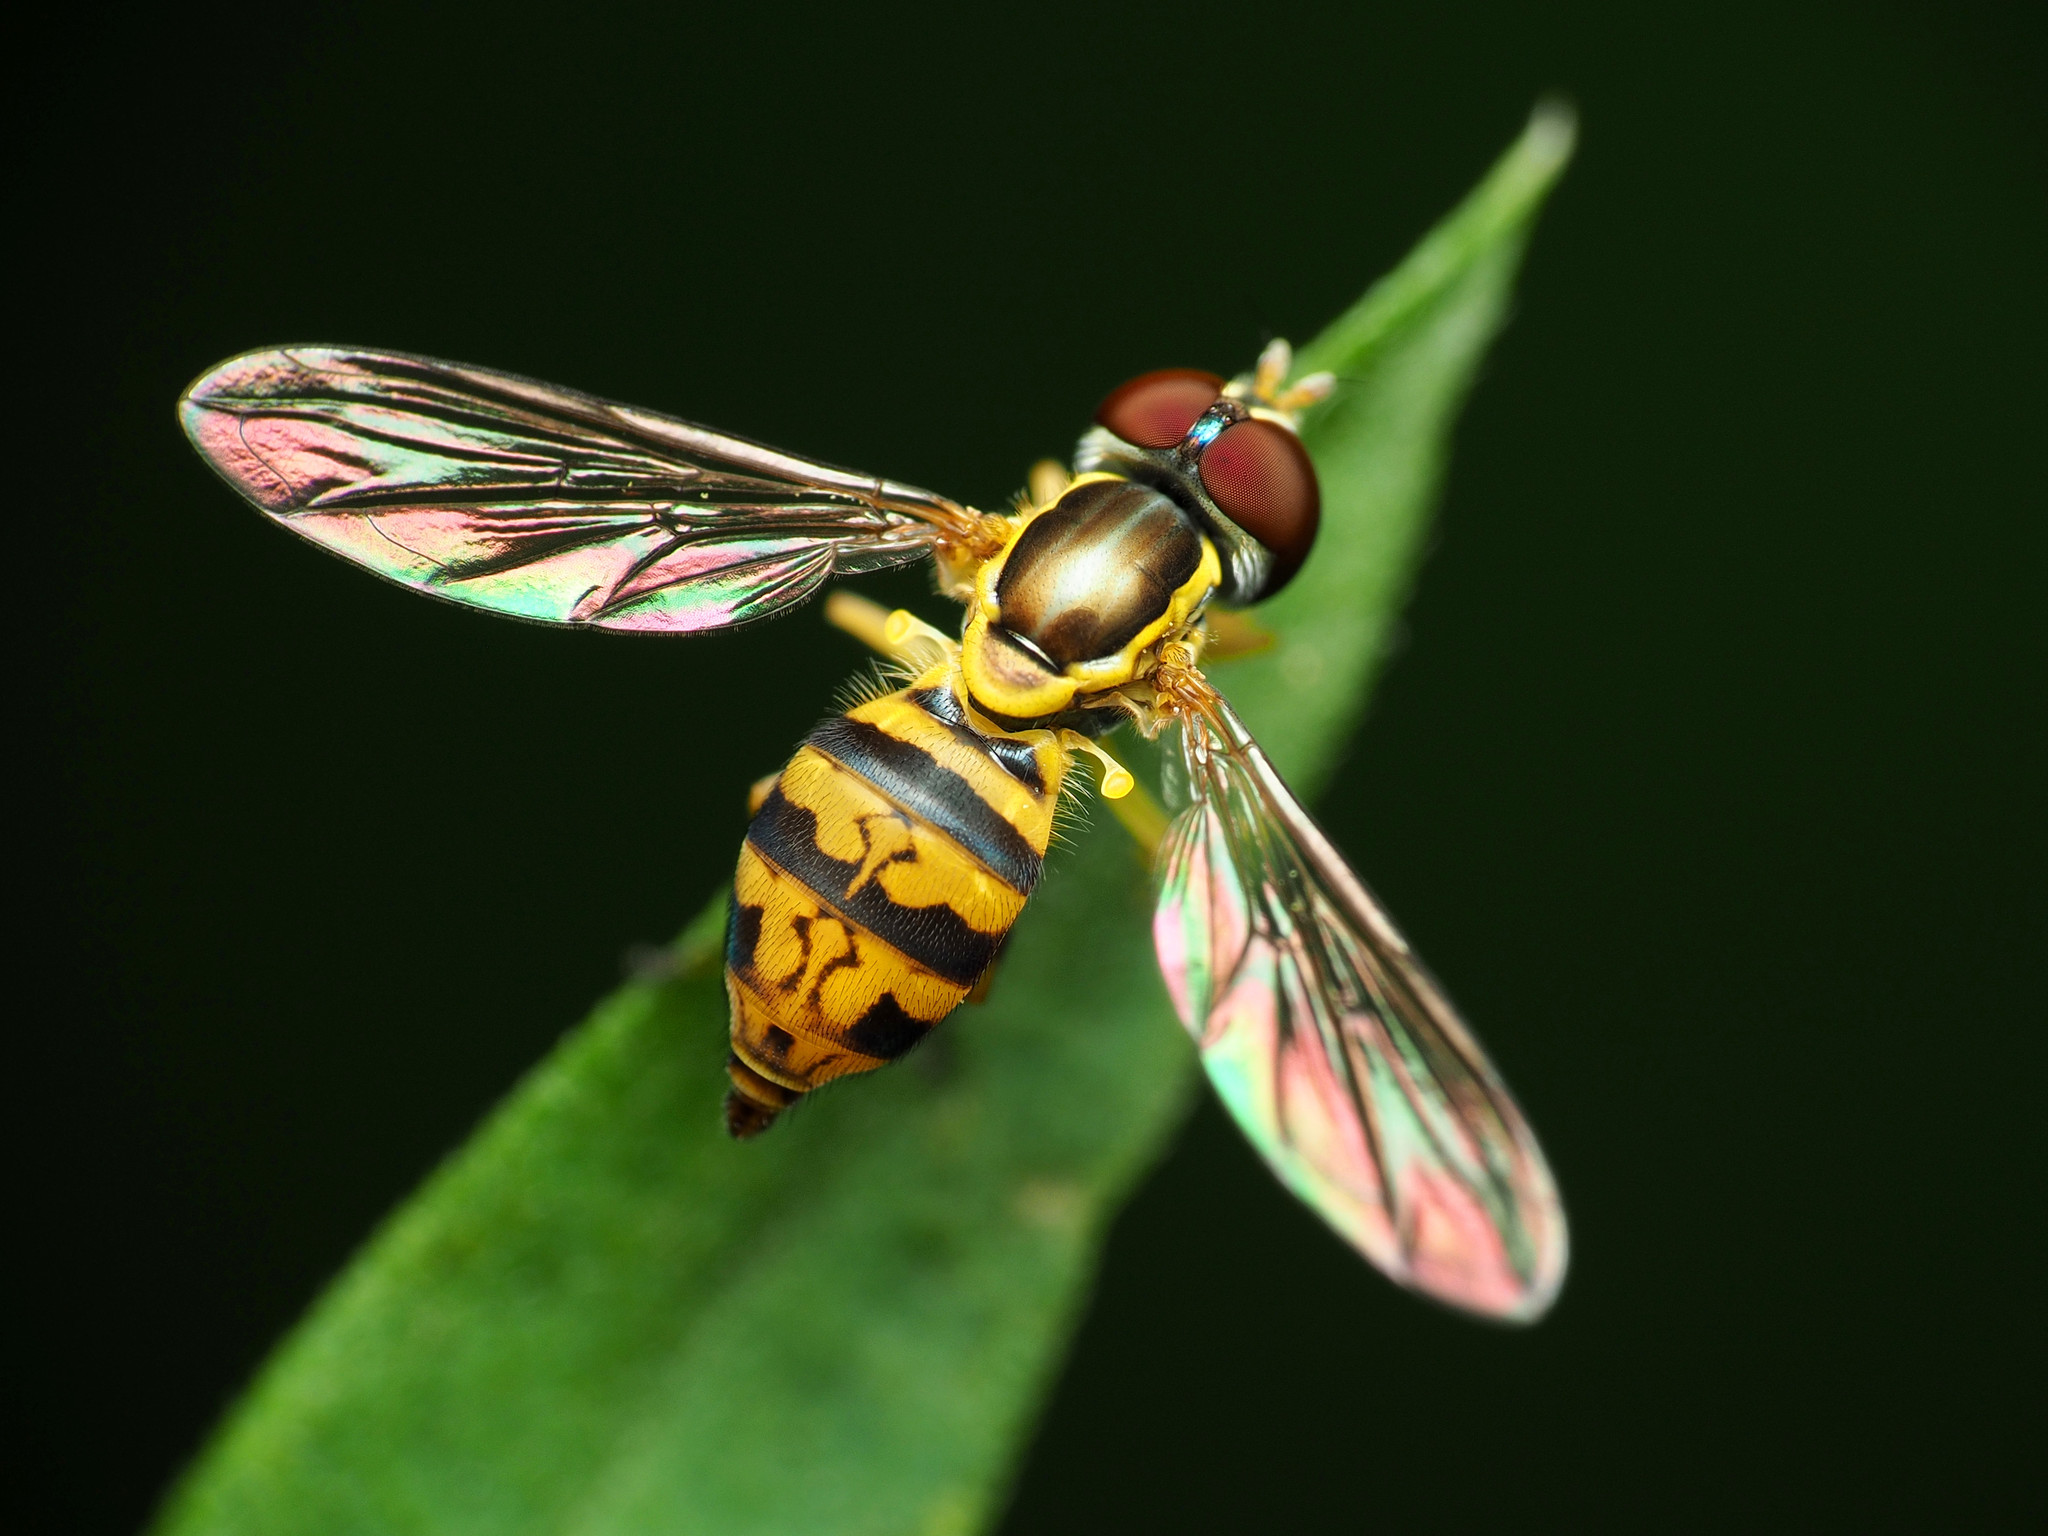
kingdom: Animalia
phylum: Arthropoda
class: Insecta
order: Diptera
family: Syrphidae
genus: Toxomerus
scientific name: Toxomerus geminatus
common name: Eastern calligrapher
